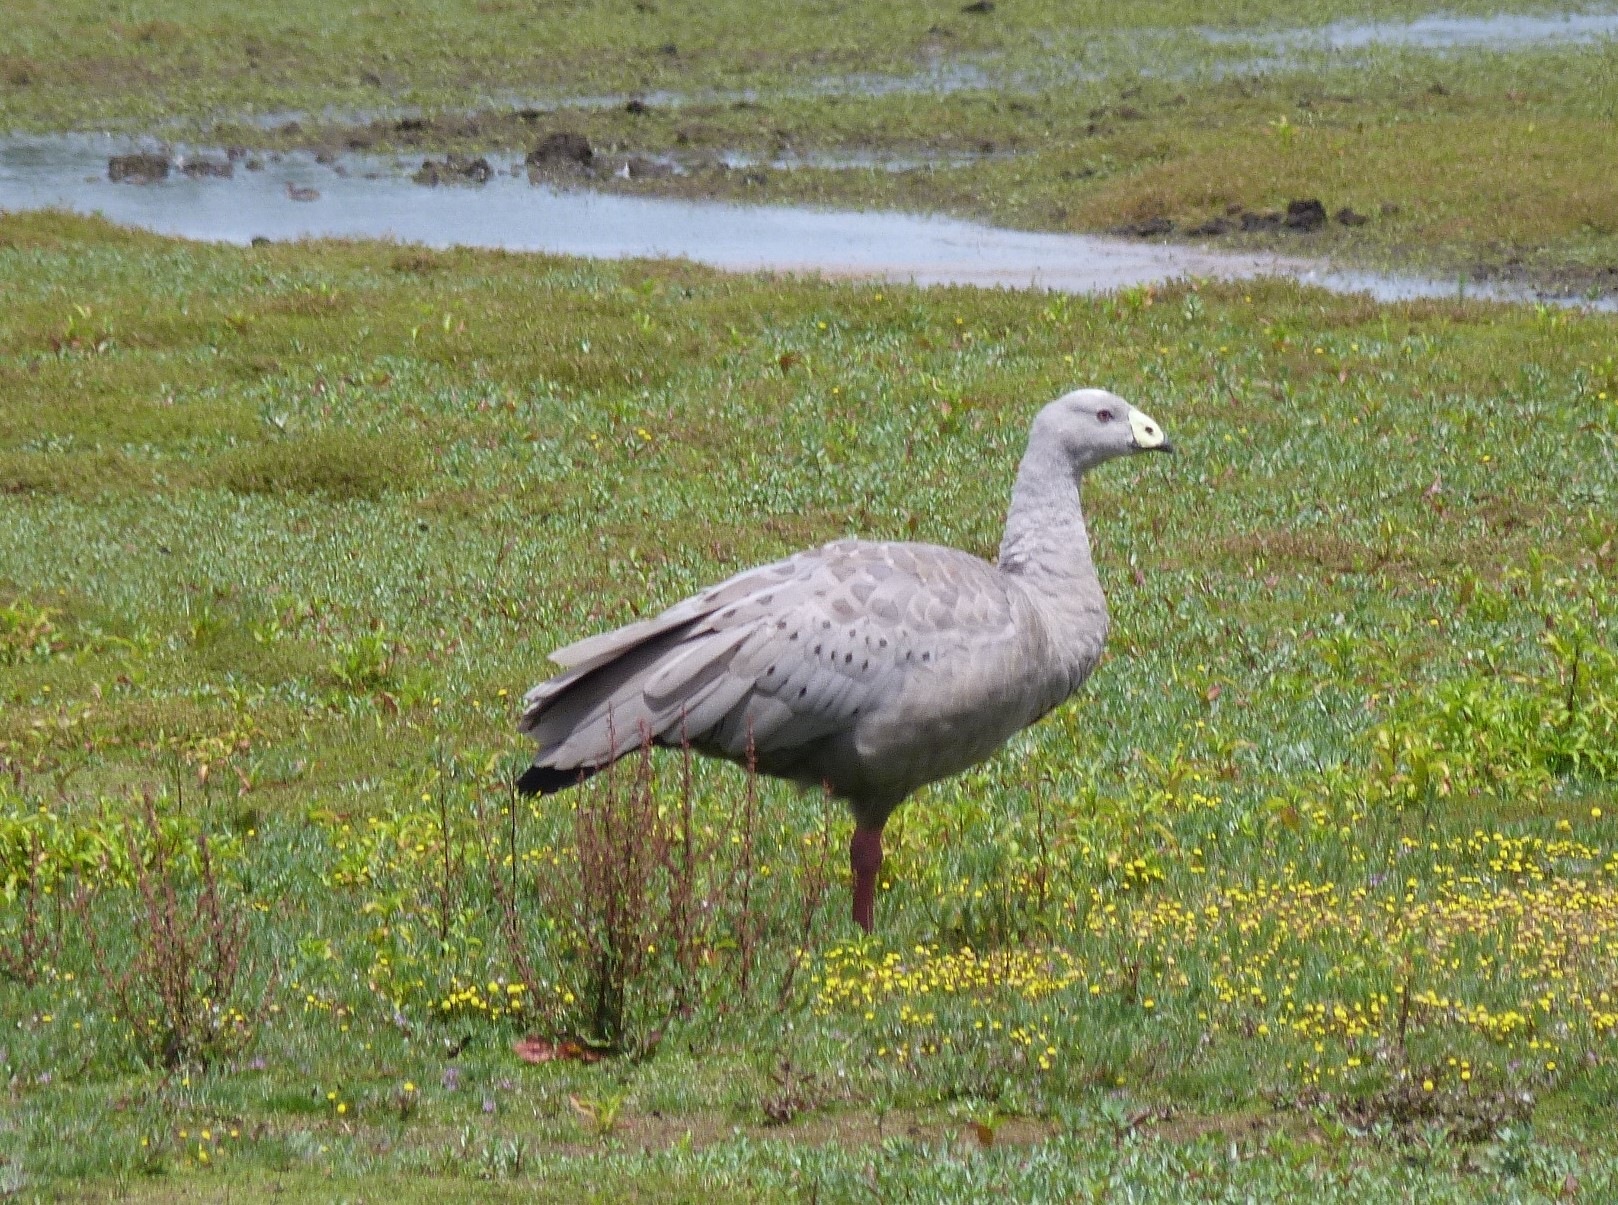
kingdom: Animalia
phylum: Chordata
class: Aves
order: Anseriformes
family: Anatidae
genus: Cereopsis
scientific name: Cereopsis novaehollandiae
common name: Cape barren goose
